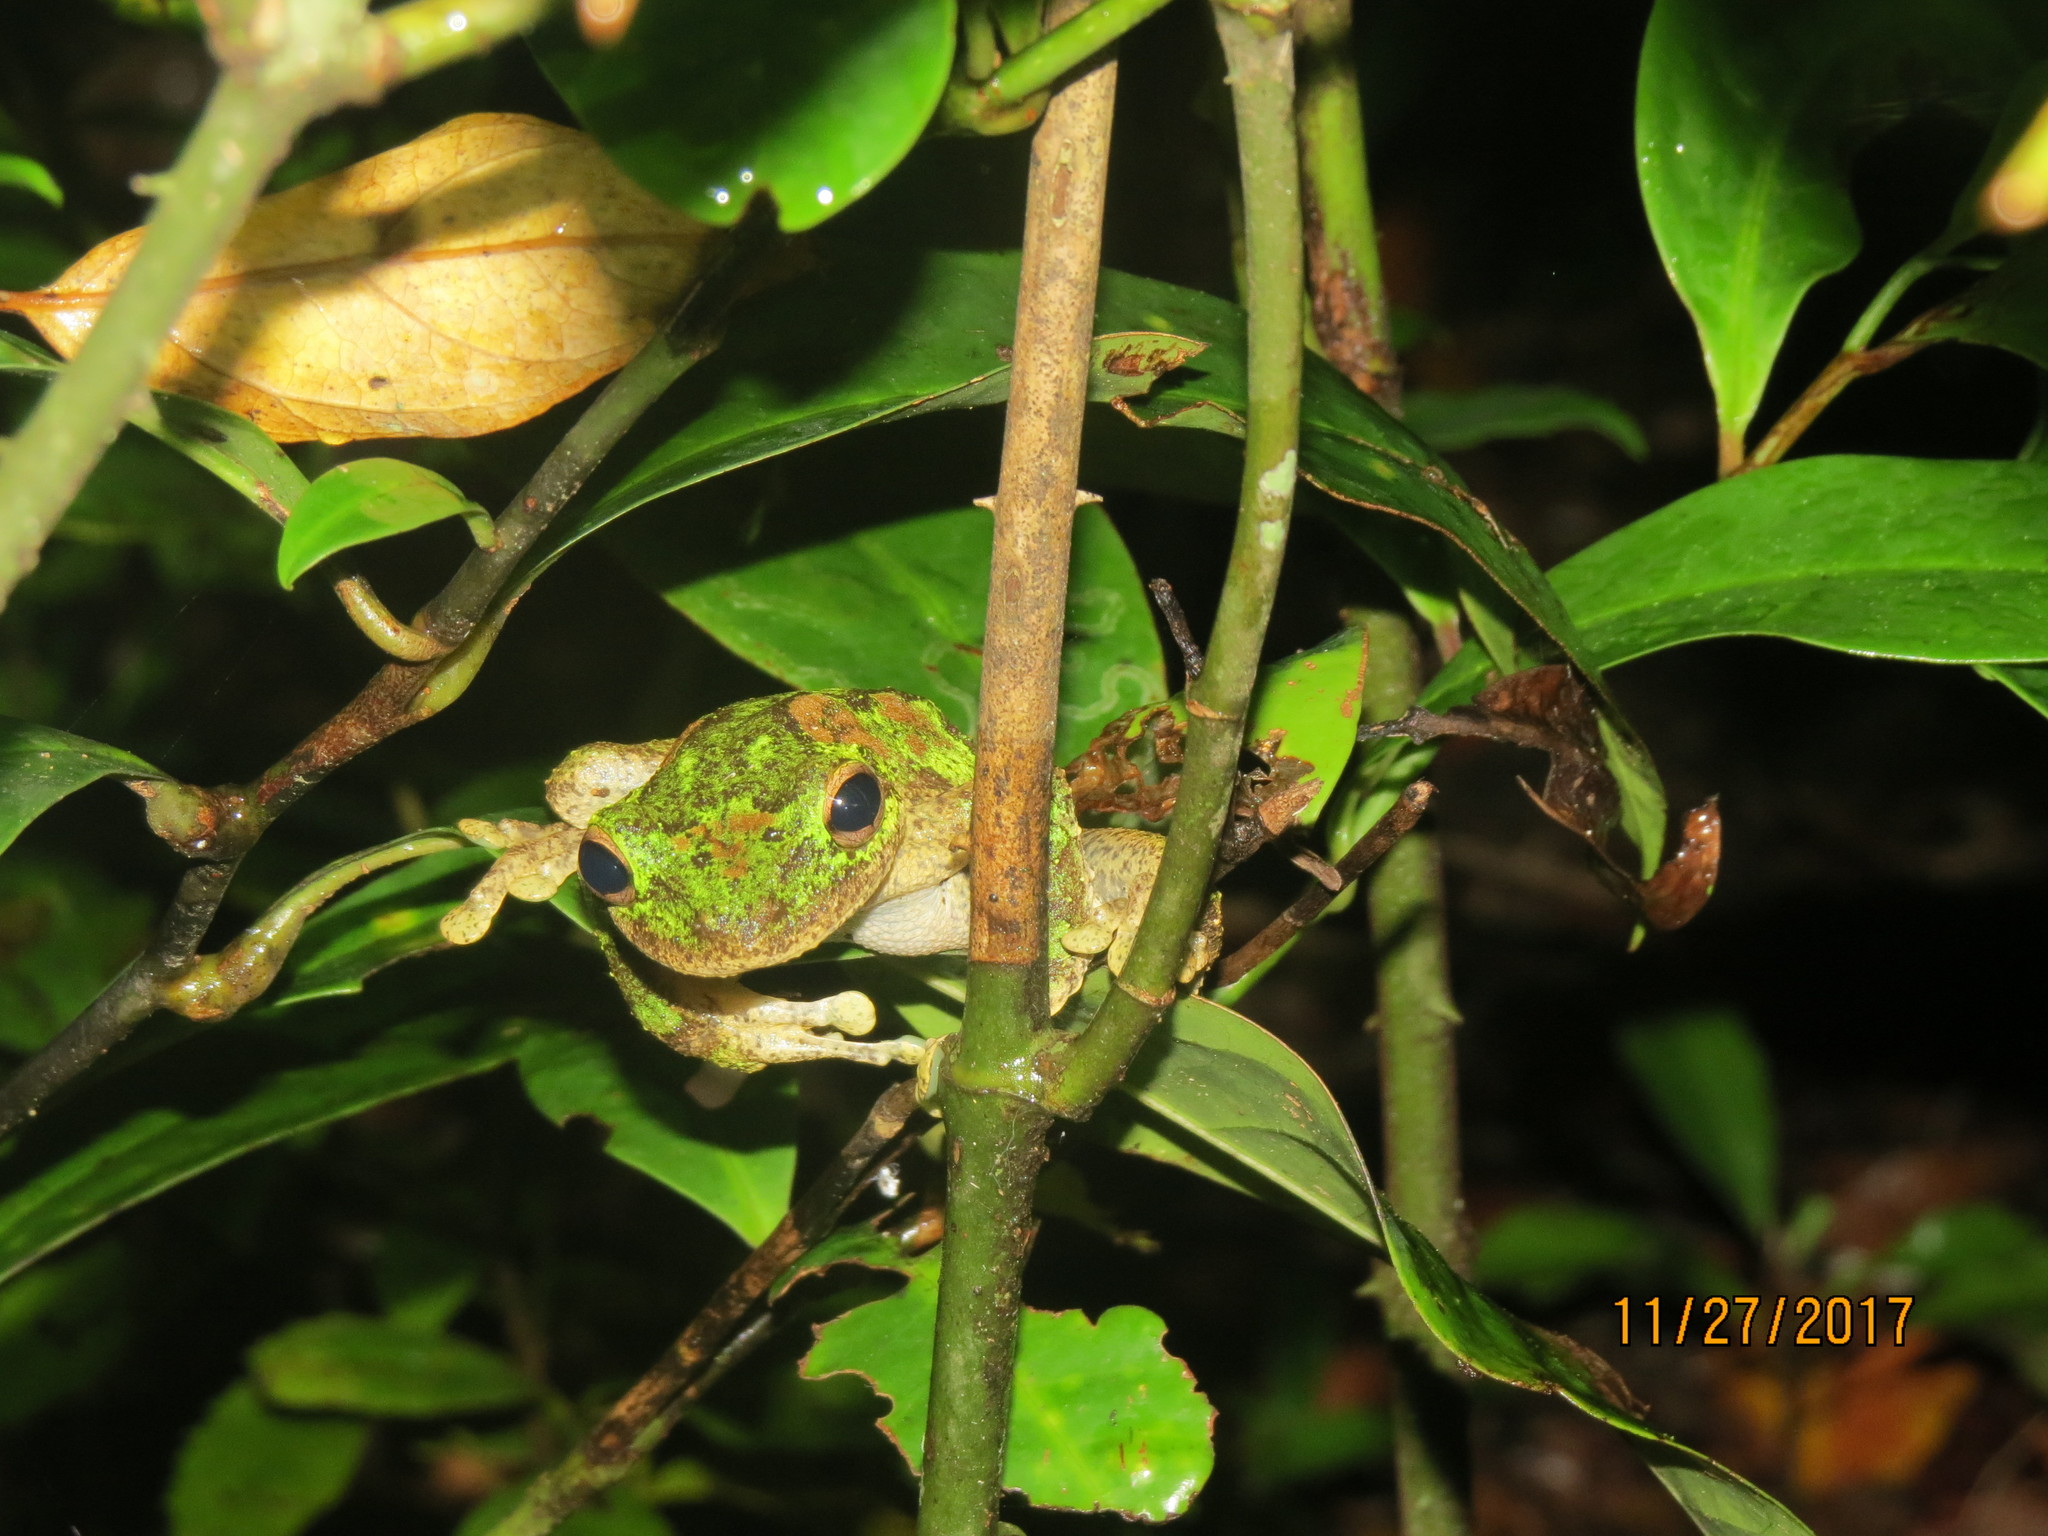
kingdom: Animalia
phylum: Chordata
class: Amphibia
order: Anura
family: Pelodryadidae
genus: Ranoidea
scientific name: Ranoidea serrata
